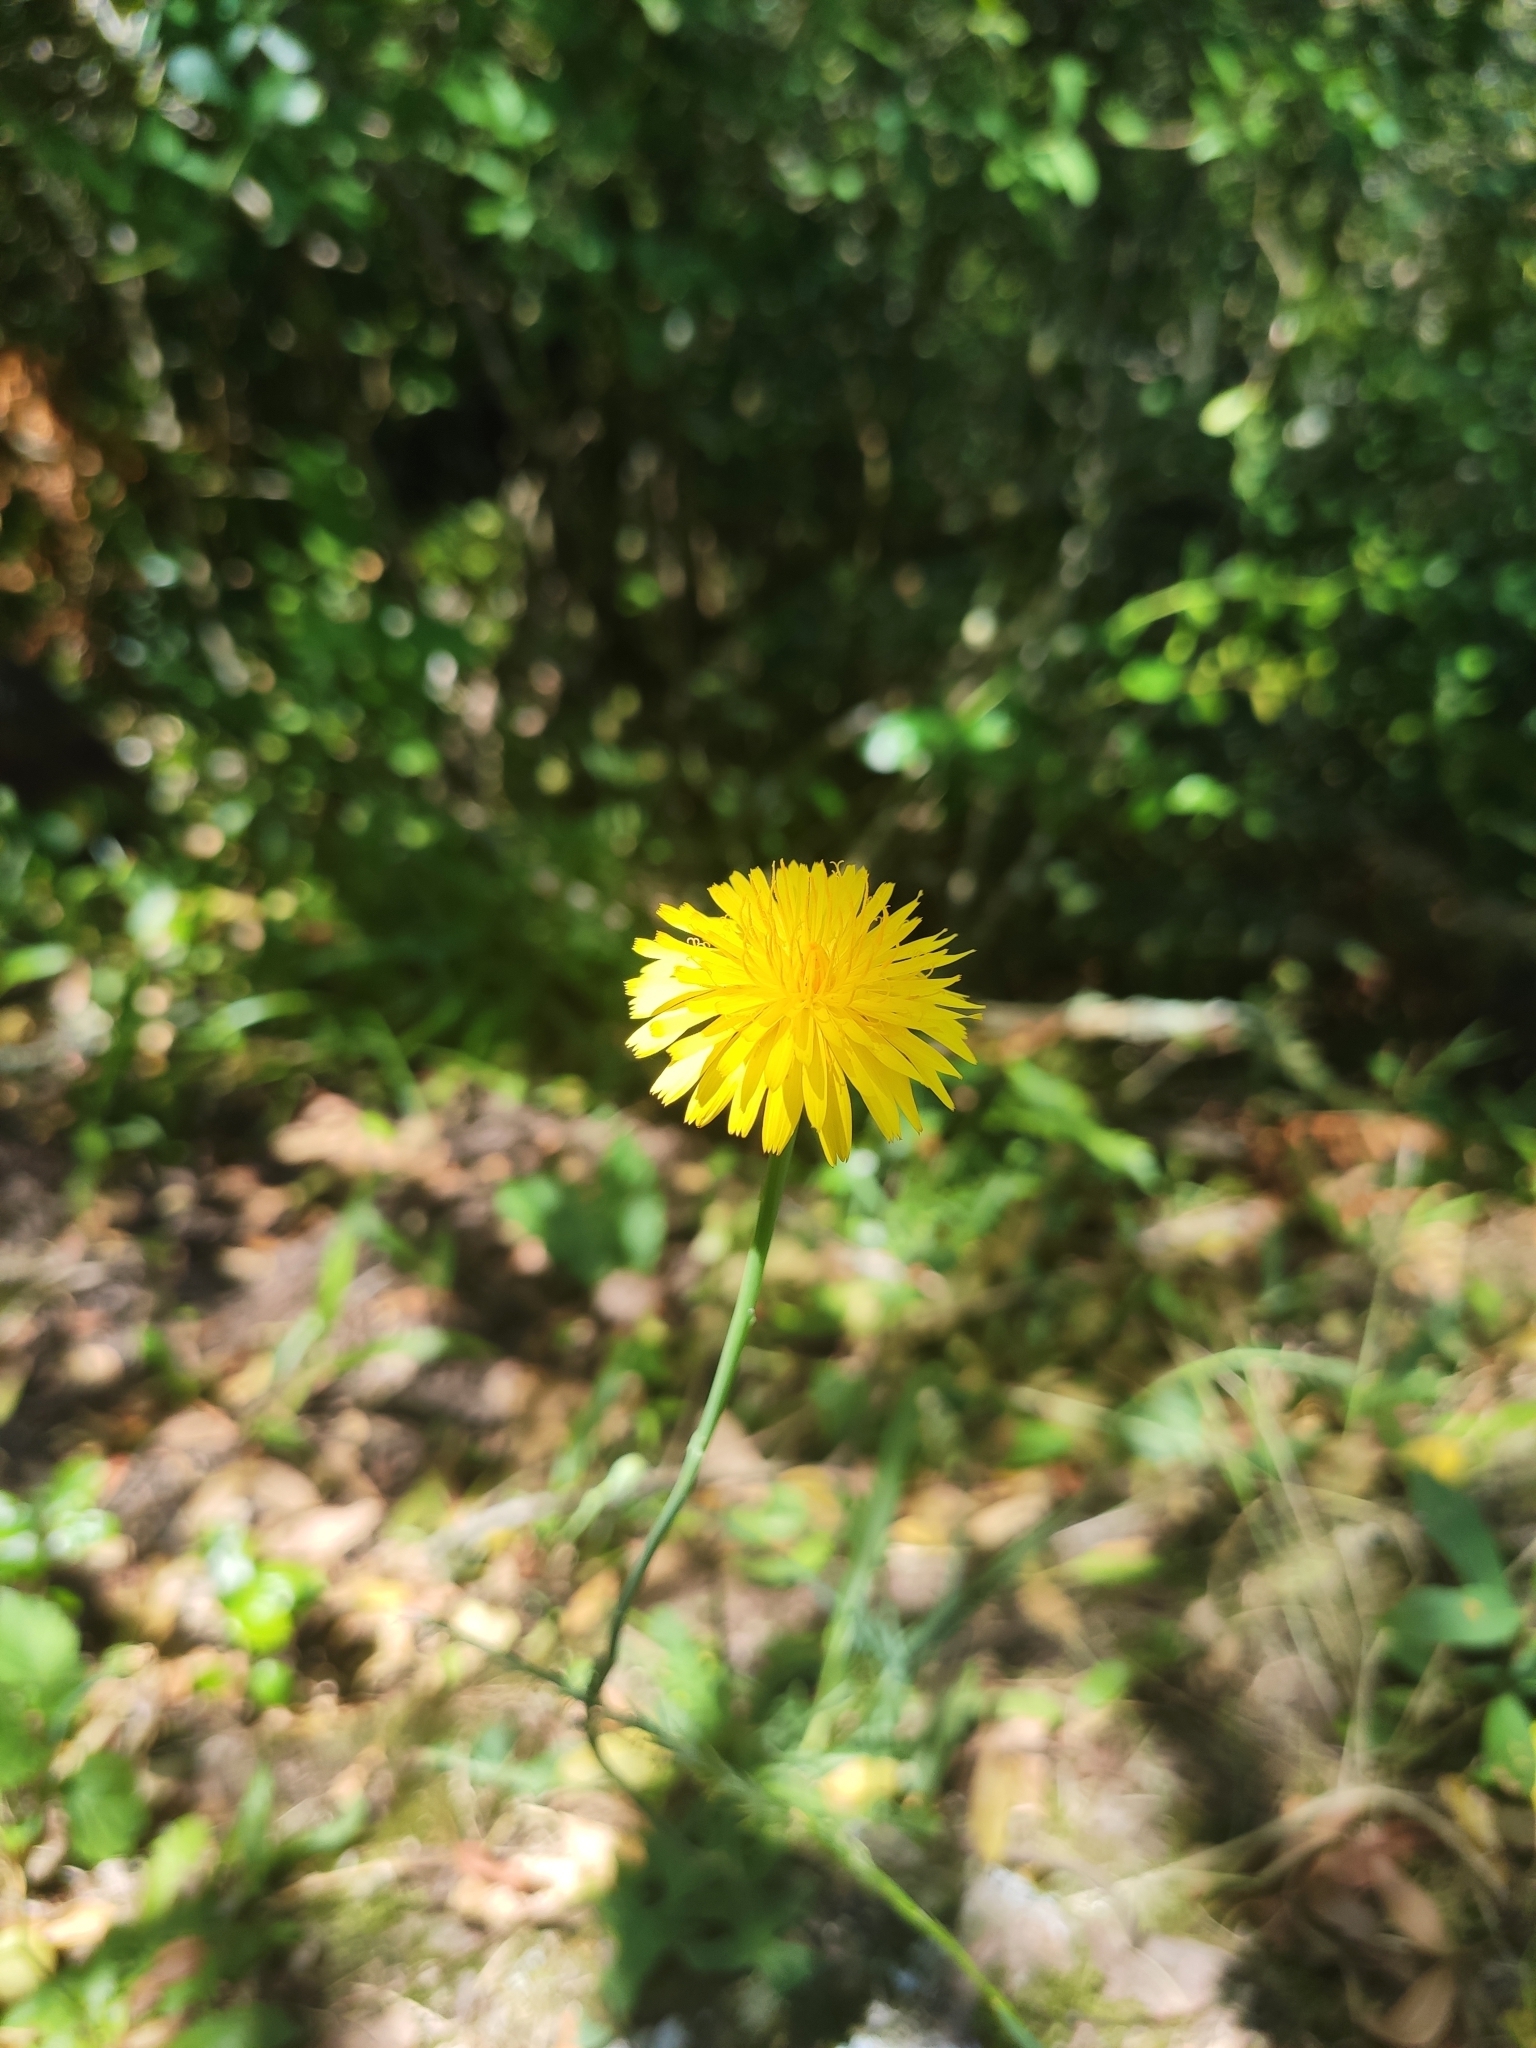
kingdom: Plantae
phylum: Tracheophyta
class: Magnoliopsida
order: Asterales
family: Asteraceae
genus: Hypochaeris
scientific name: Hypochaeris radicata
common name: Flatweed
